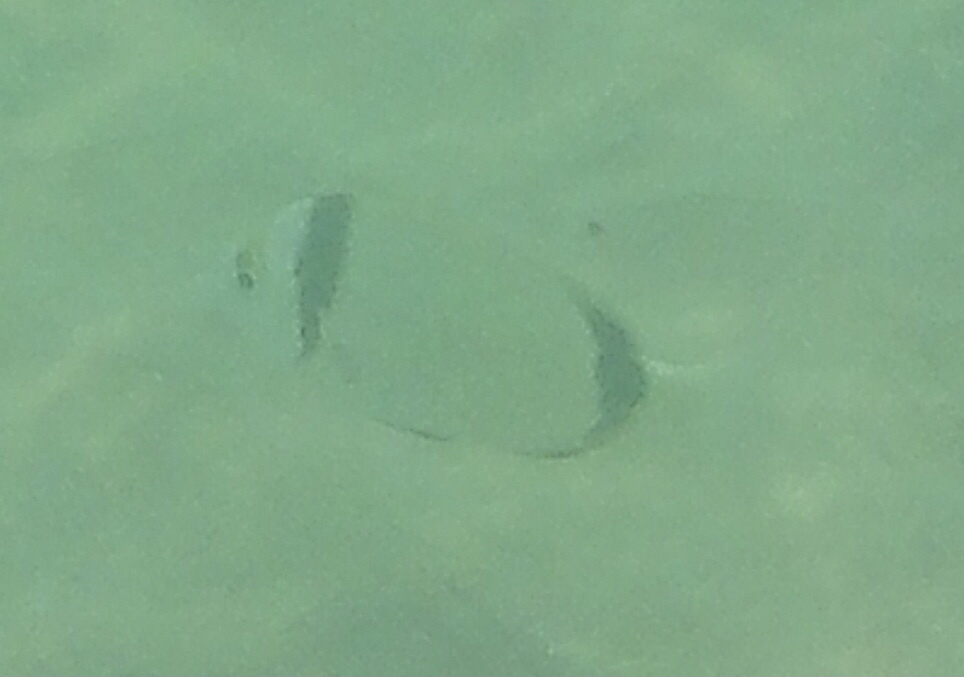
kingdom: Animalia
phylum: Chordata
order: Perciformes
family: Sparidae
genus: Diplodus
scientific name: Diplodus vulgaris
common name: Common two-banded seabream
